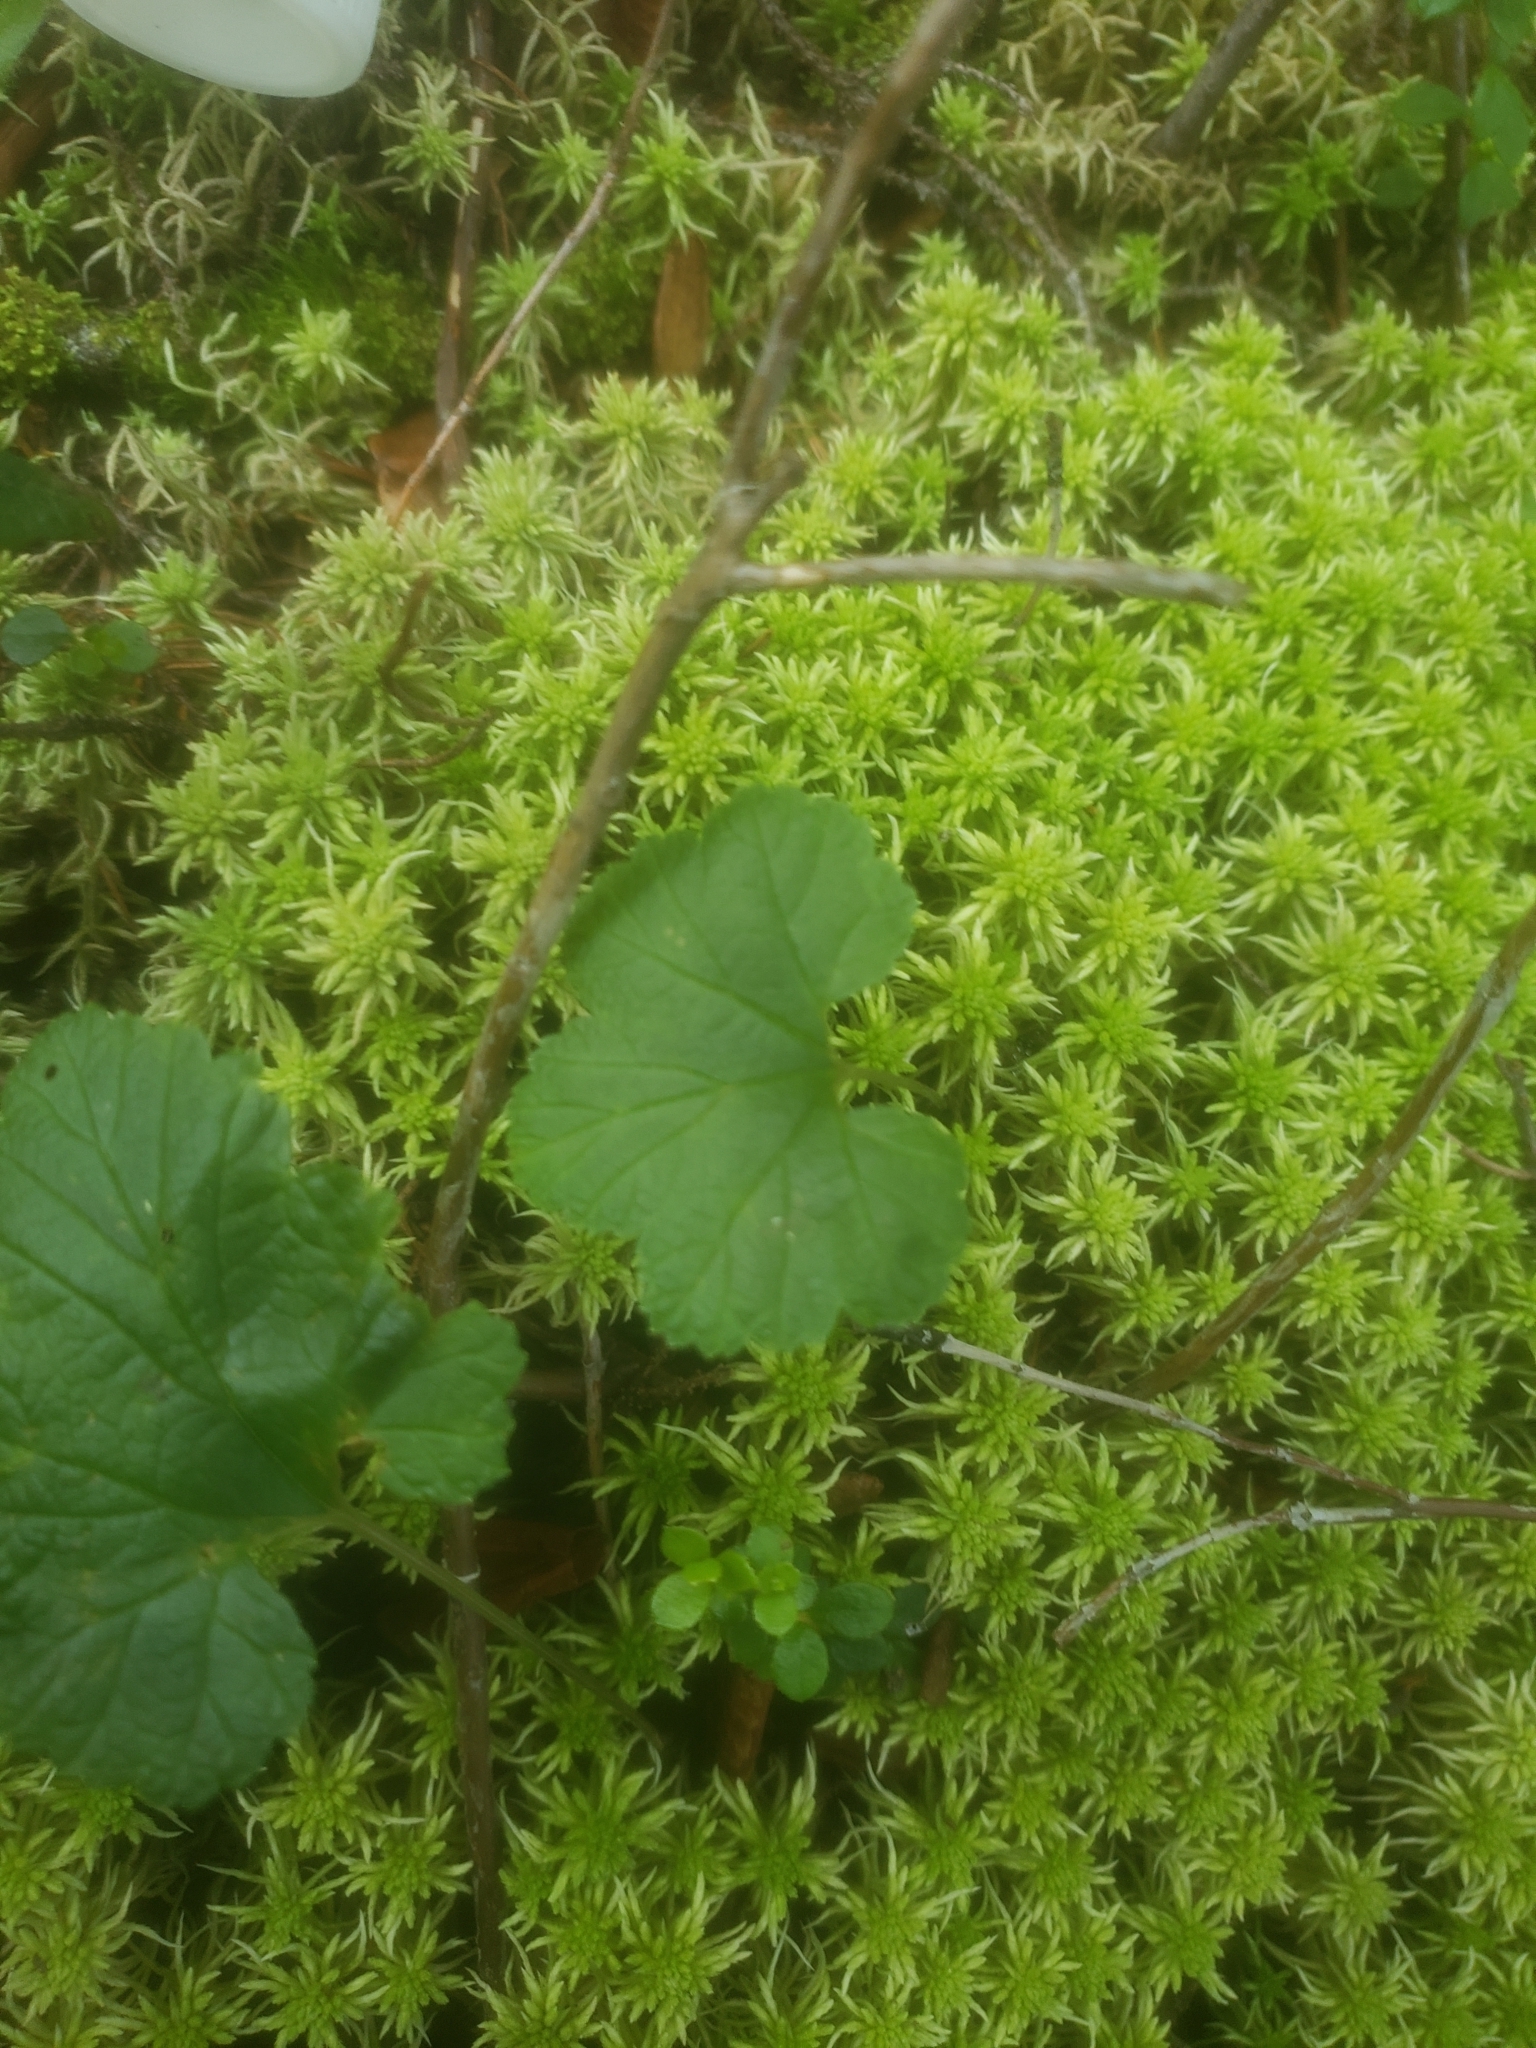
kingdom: Plantae
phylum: Tracheophyta
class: Magnoliopsida
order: Rosales
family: Rosaceae
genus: Rubus
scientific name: Rubus chamaemorus
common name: Cloudberry
